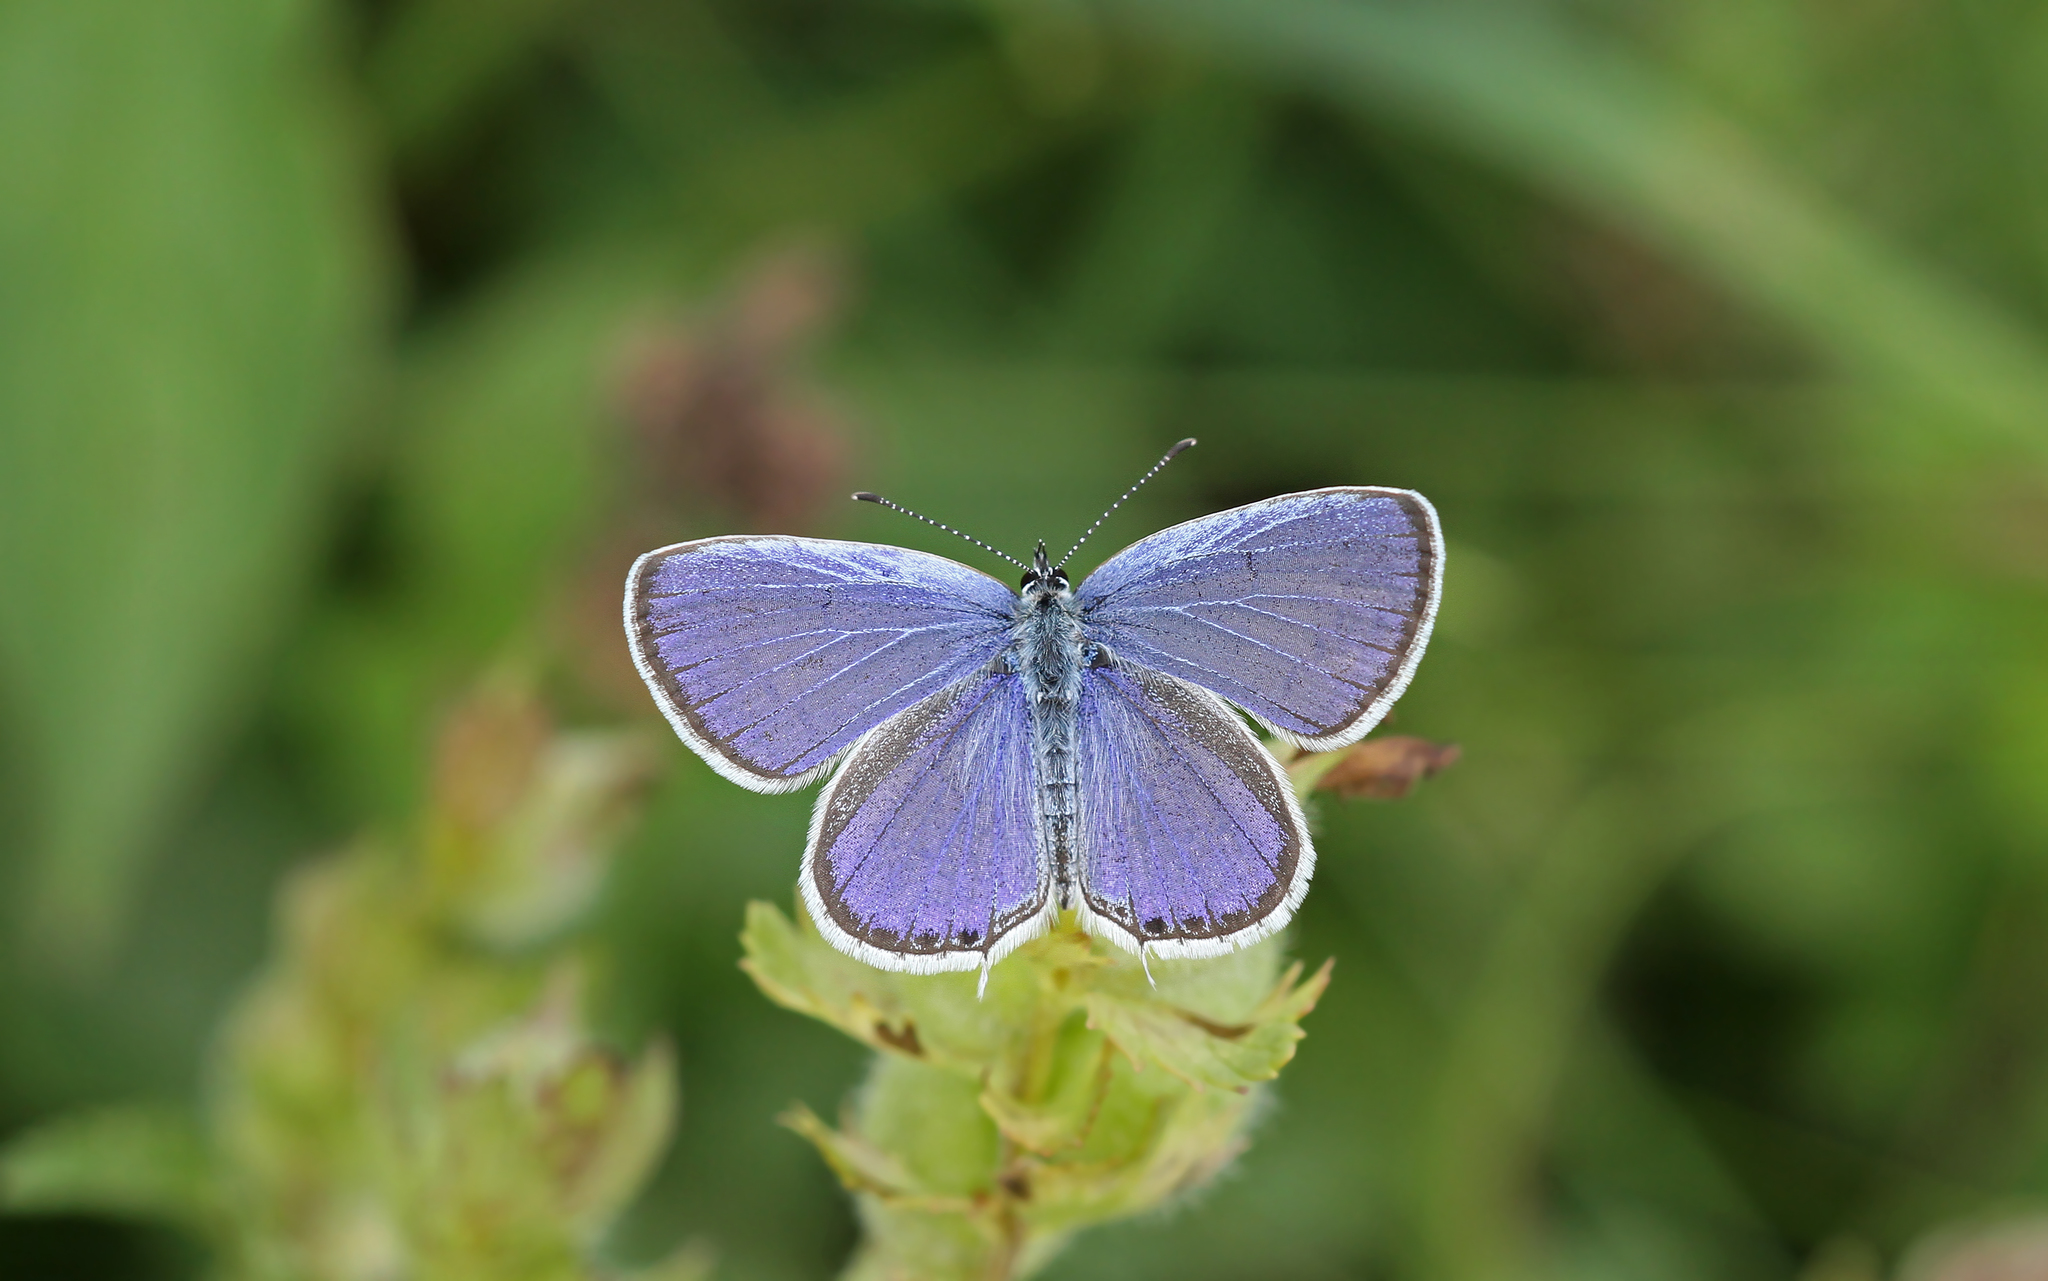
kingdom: Animalia
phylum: Arthropoda
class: Insecta
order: Lepidoptera
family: Lycaenidae
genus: Elkalyce
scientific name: Elkalyce argiades
